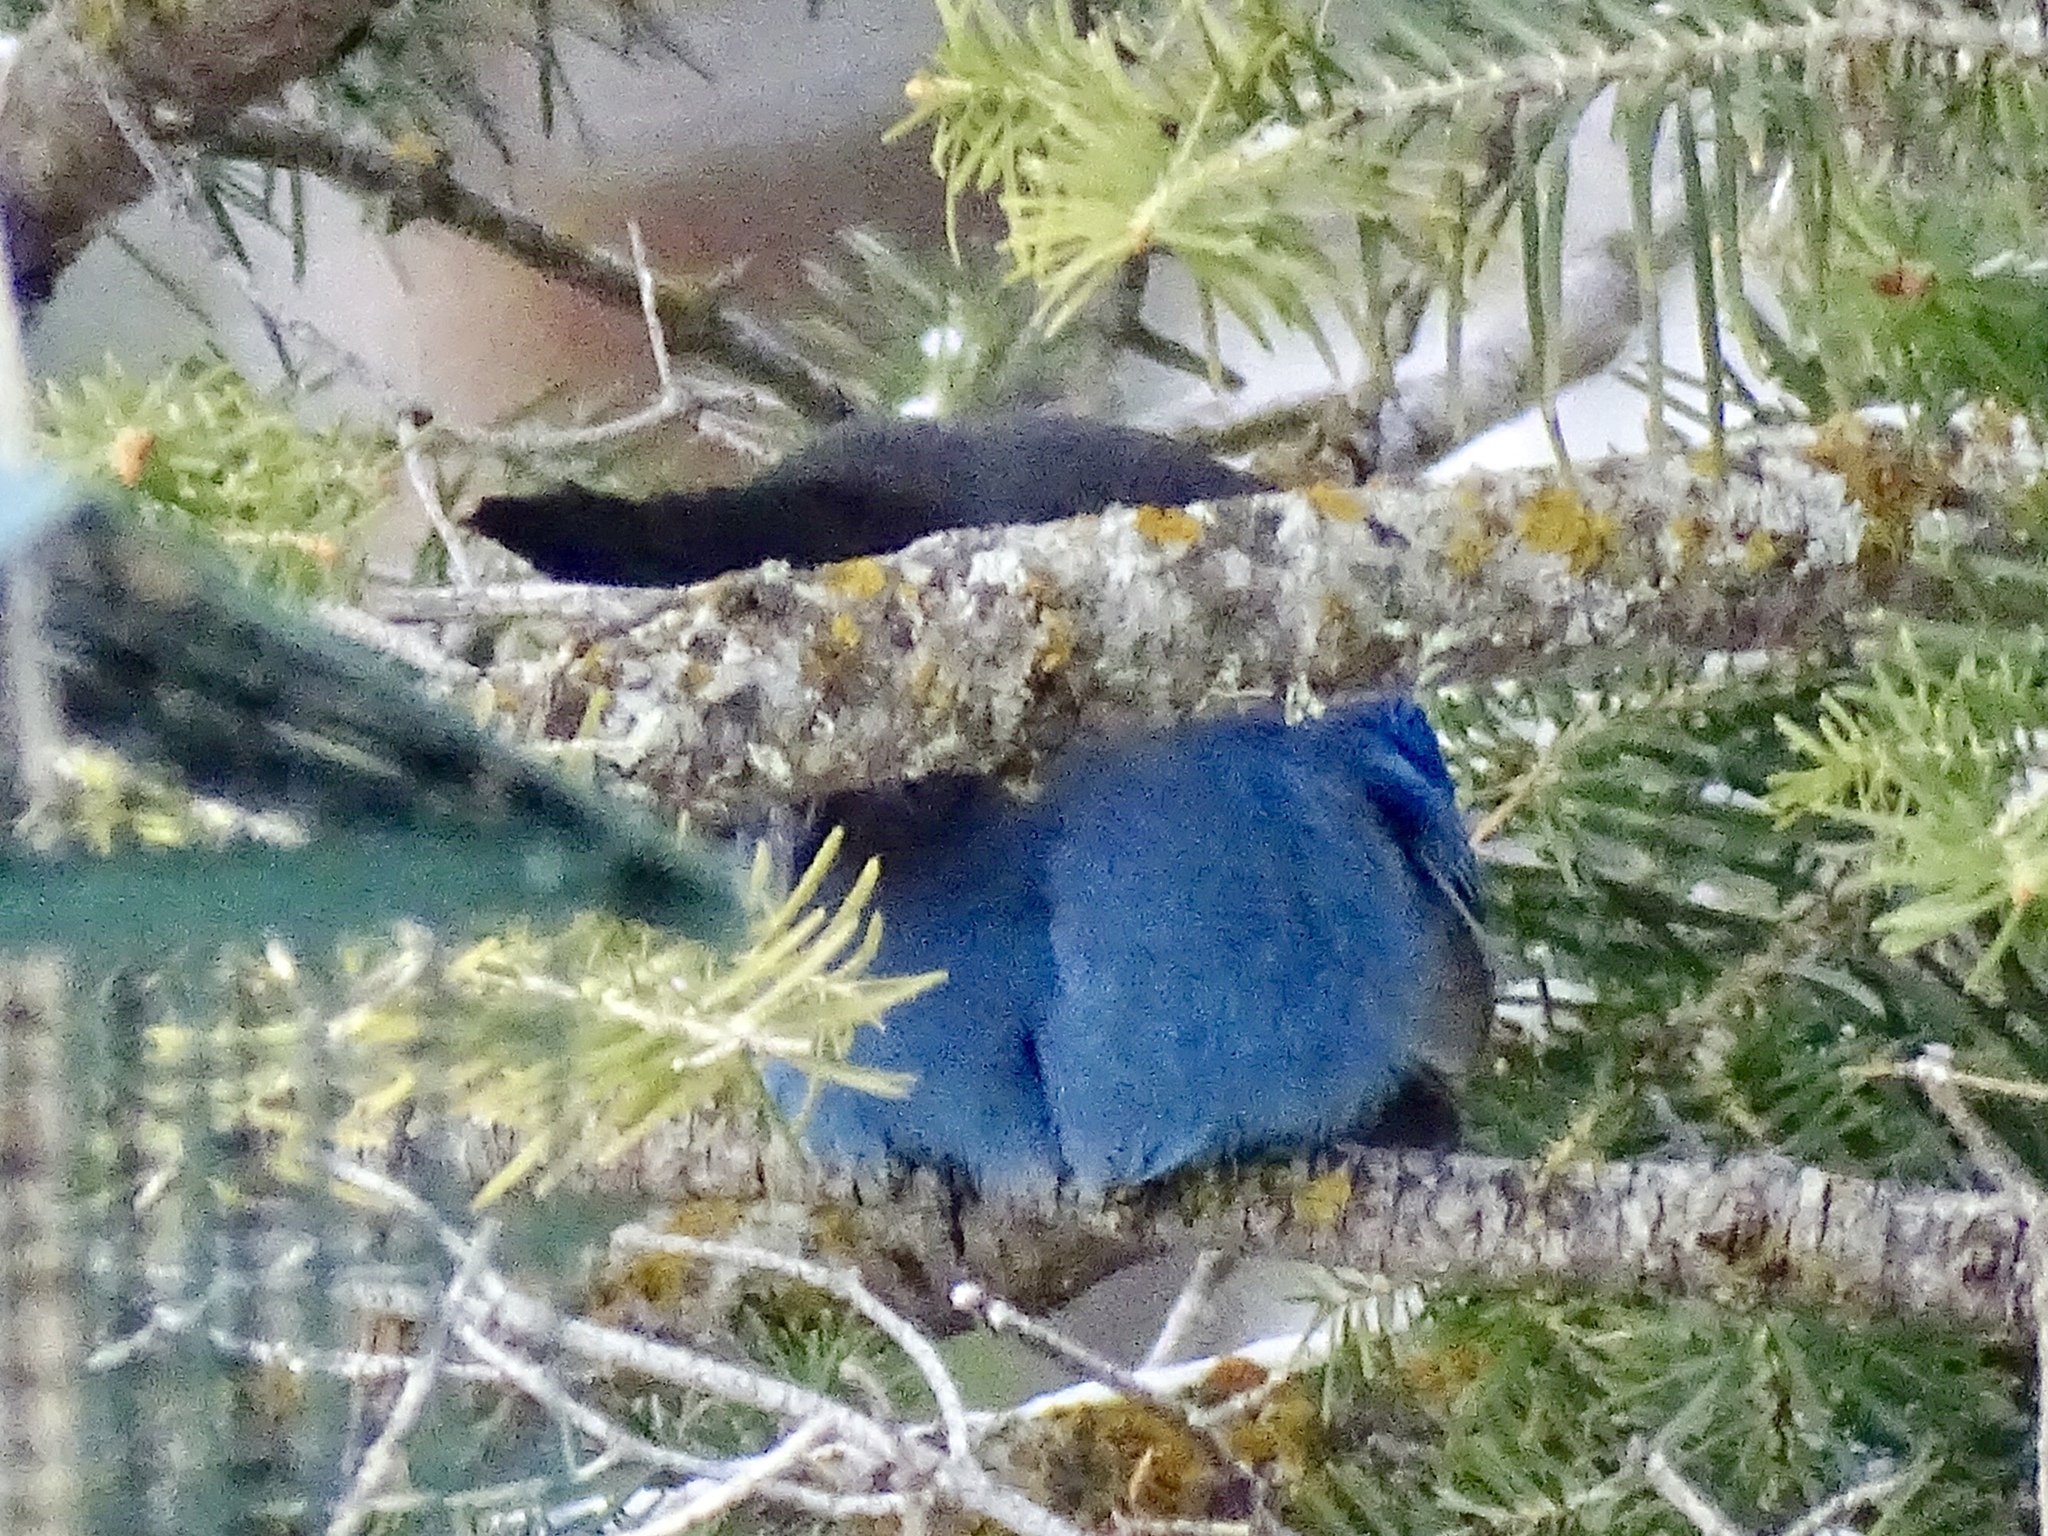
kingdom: Animalia
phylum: Chordata
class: Aves
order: Passeriformes
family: Corvidae
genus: Cyanocitta
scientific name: Cyanocitta stelleri
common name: Steller's jay
